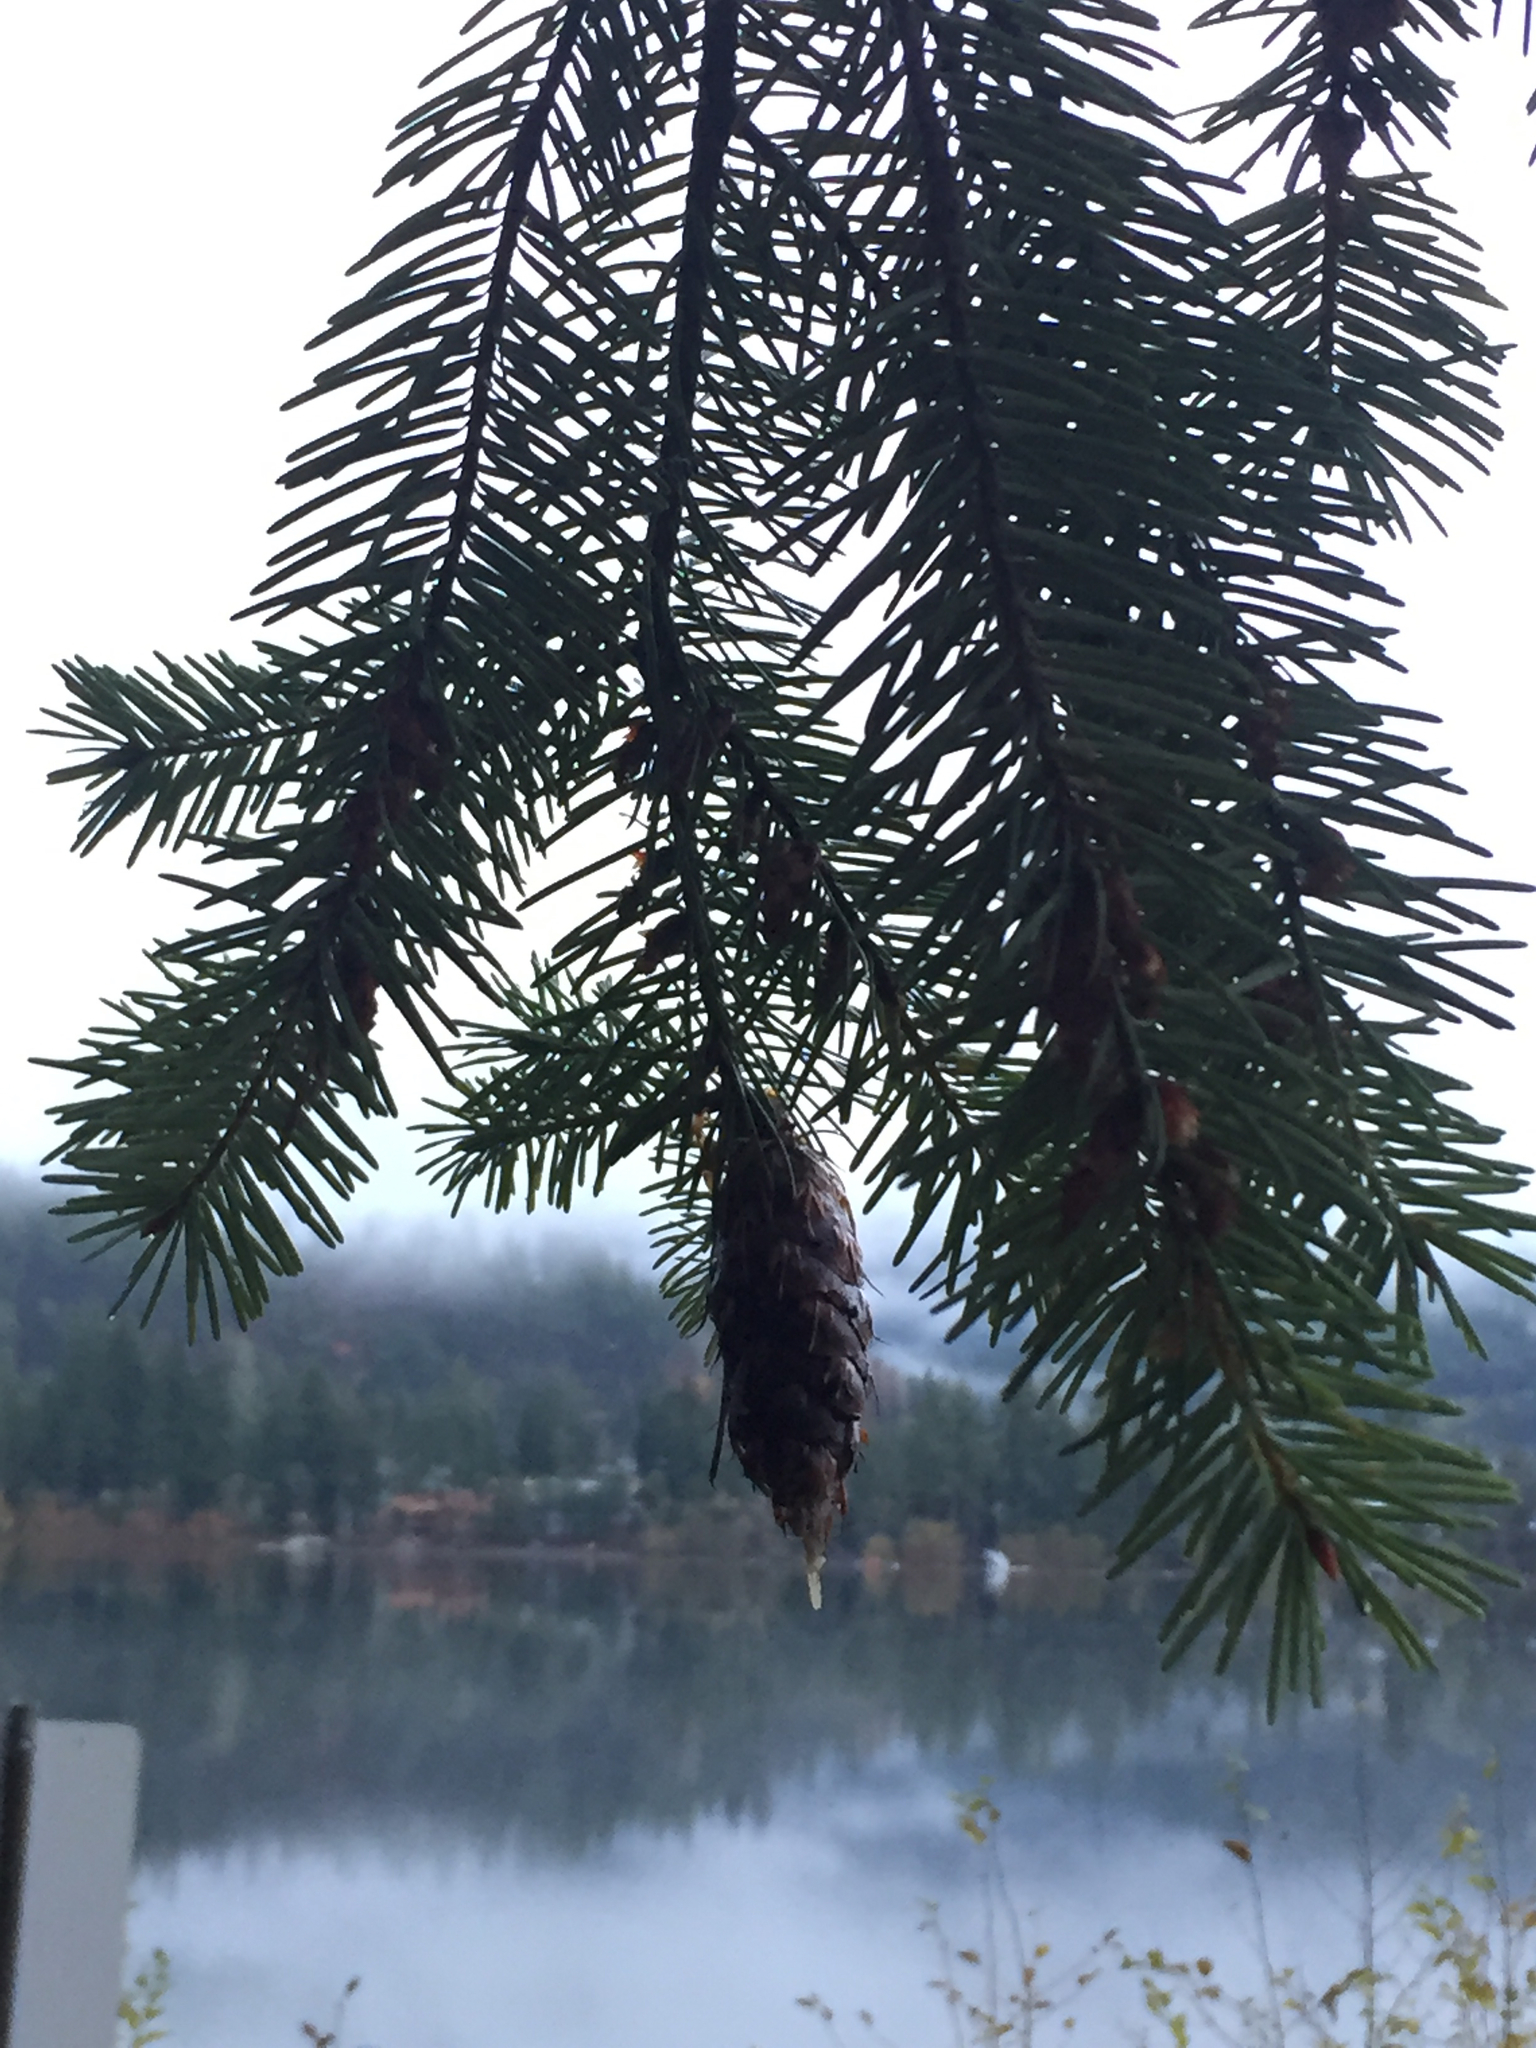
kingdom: Plantae
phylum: Tracheophyta
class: Pinopsida
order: Pinales
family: Pinaceae
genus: Pseudotsuga
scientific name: Pseudotsuga menziesii
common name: Douglas fir
